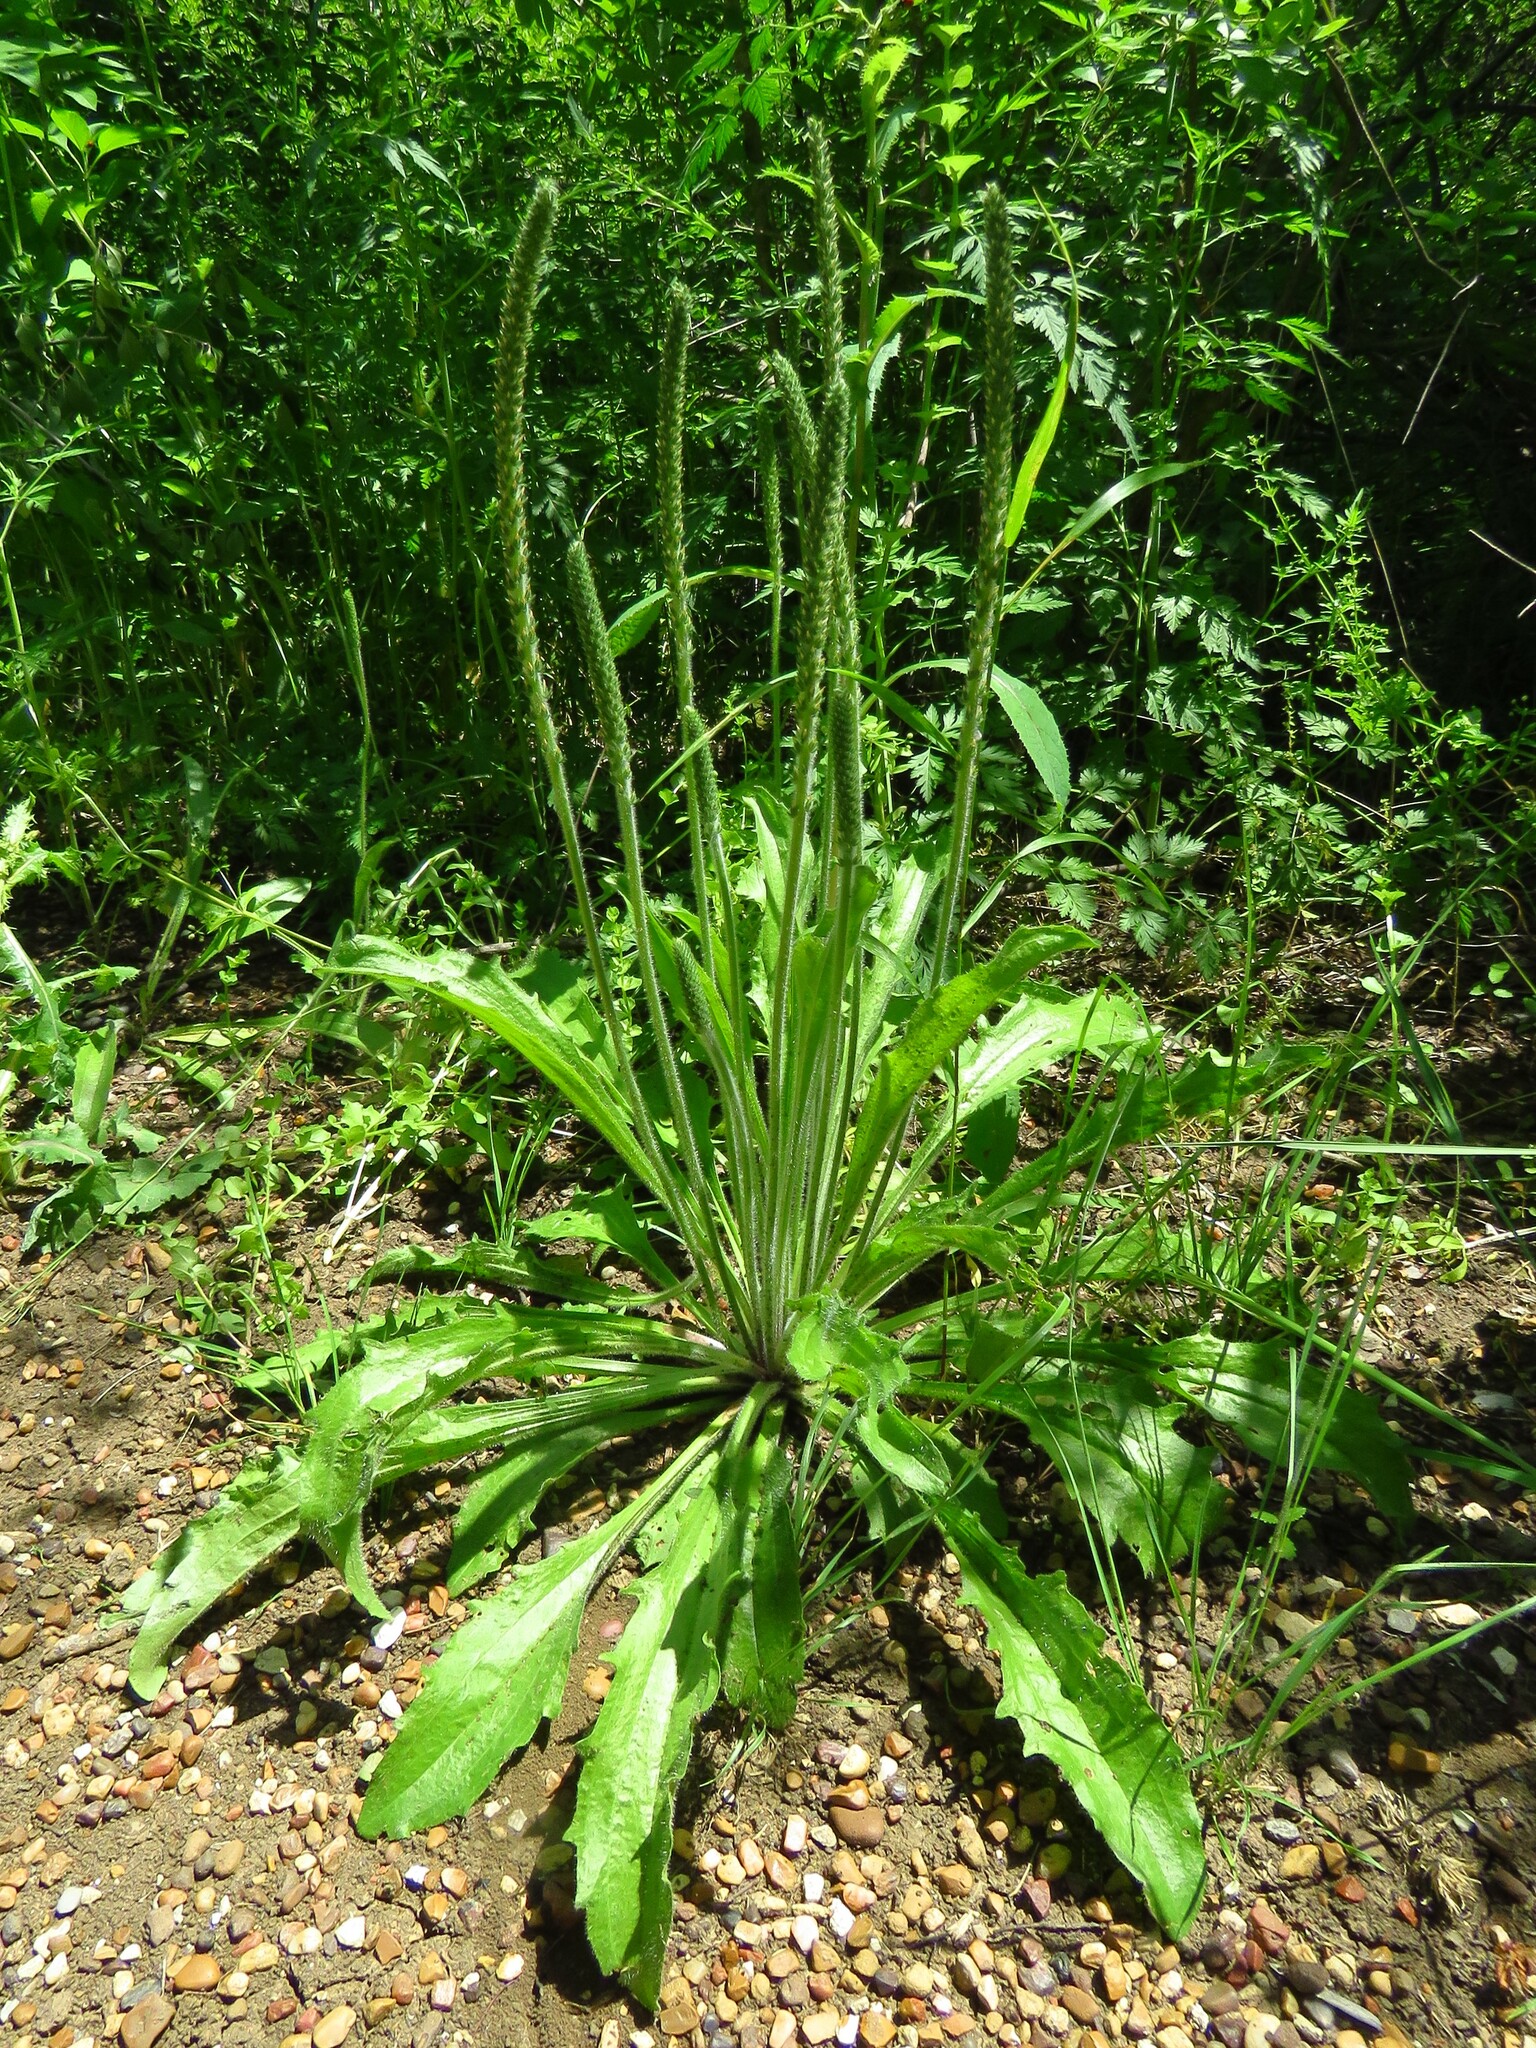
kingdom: Plantae
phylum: Tracheophyta
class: Magnoliopsida
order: Lamiales
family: Plantaginaceae
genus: Plantago
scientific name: Plantago rhodosperma
